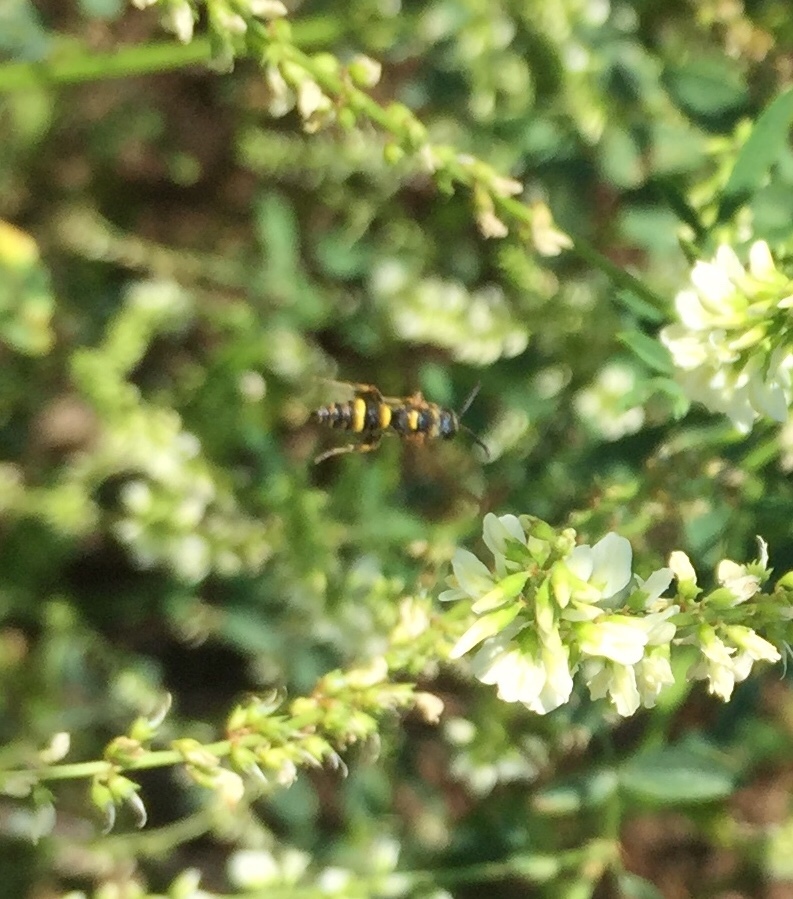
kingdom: Animalia
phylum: Arthropoda
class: Insecta
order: Hymenoptera
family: Crabronidae
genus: Cerceris
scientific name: Cerceris insolita
